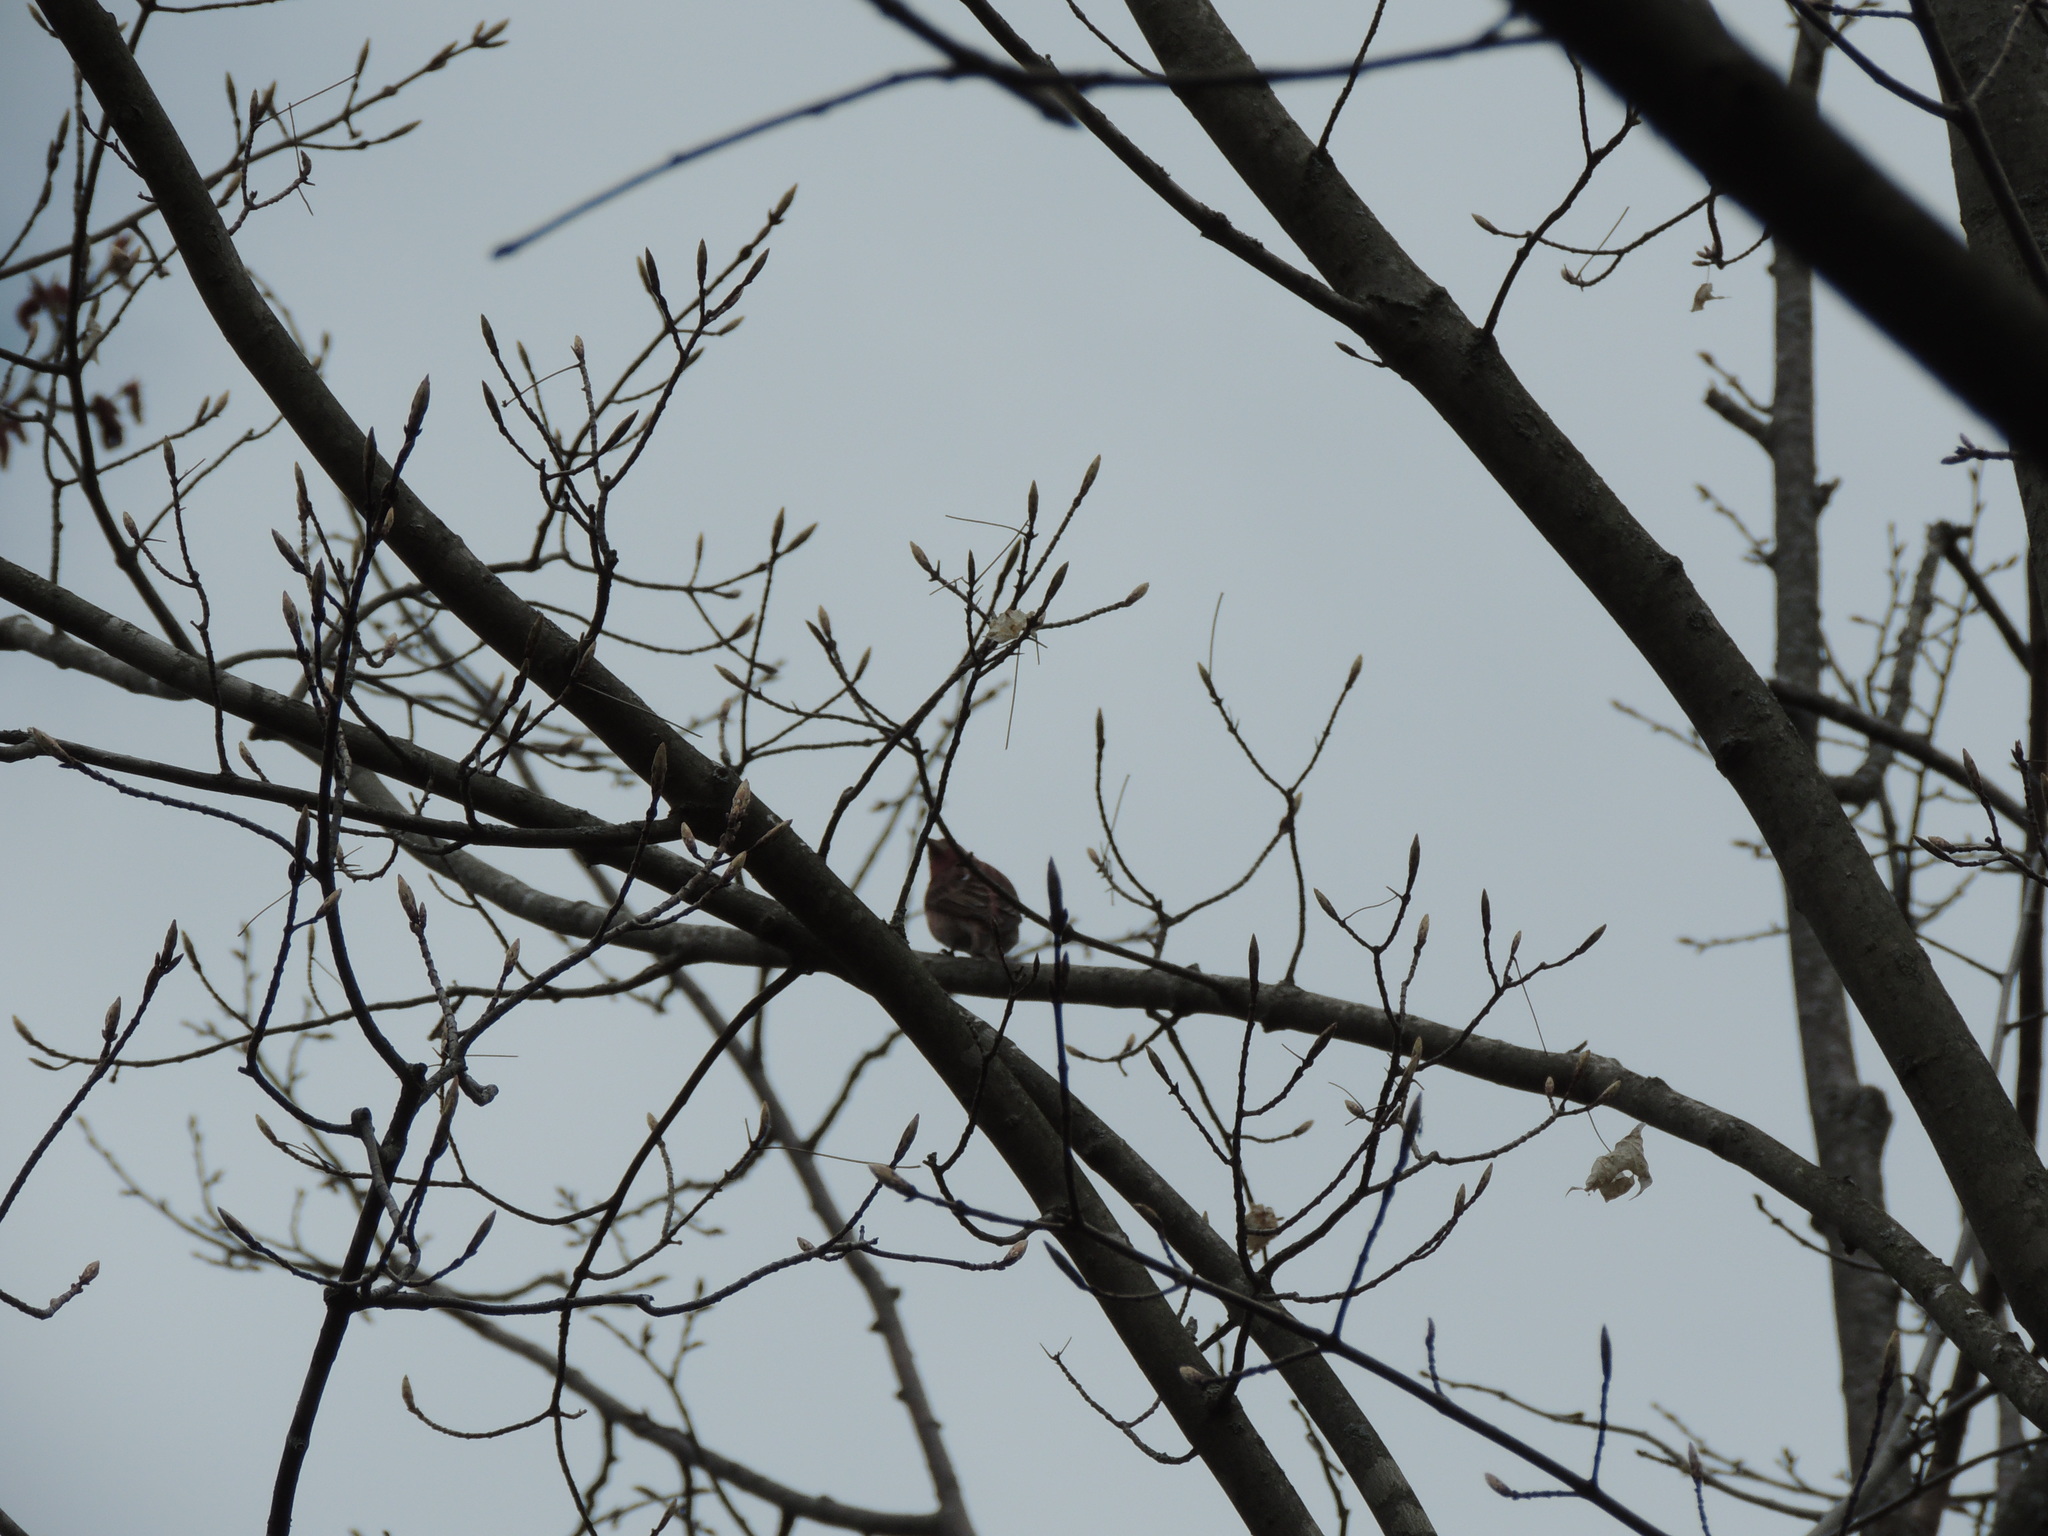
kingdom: Animalia
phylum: Chordata
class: Aves
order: Passeriformes
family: Fringillidae
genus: Haemorhous
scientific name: Haemorhous purpureus
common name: Purple finch
